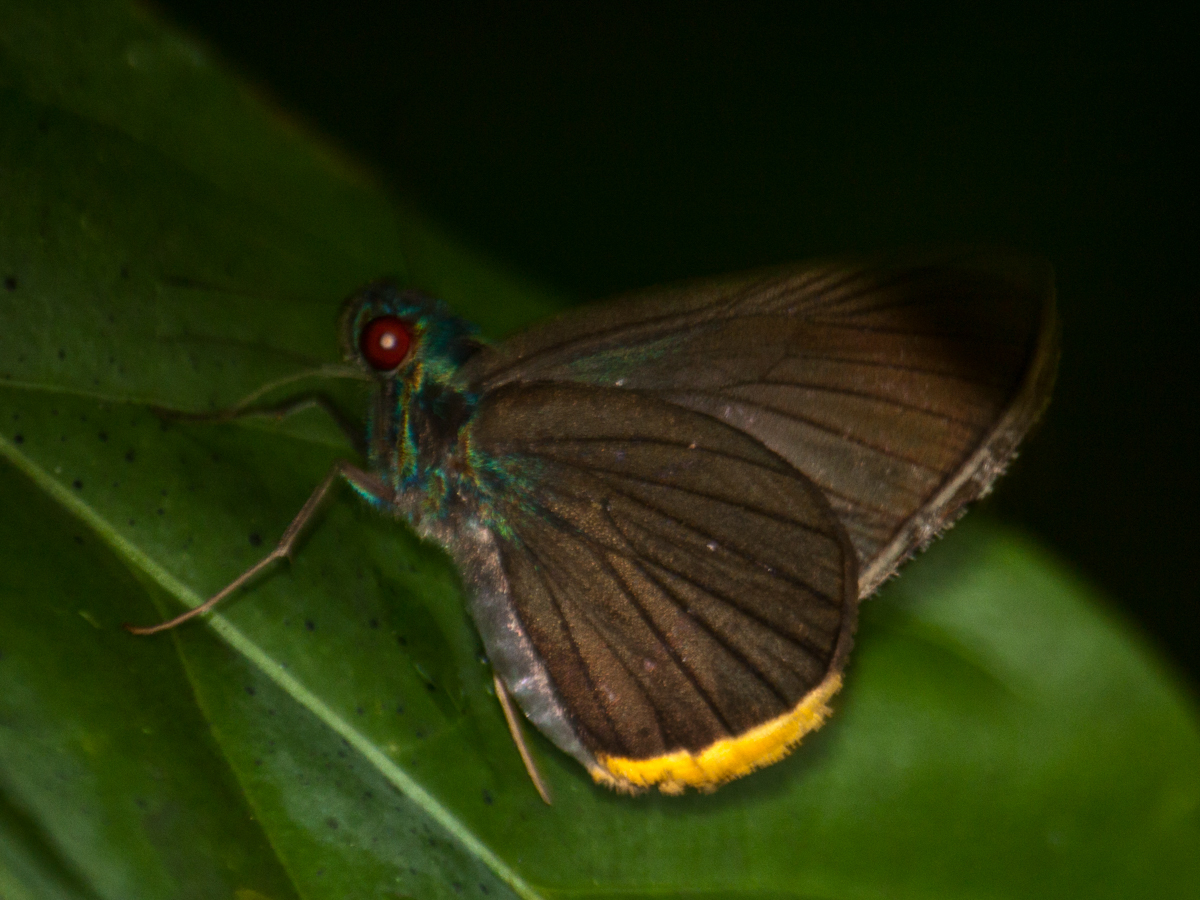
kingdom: Animalia
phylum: Arthropoda
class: Insecta
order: Lepidoptera
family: Hesperiidae
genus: Matapa
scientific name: Matapa sasivarna
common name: Black-veined redeye
